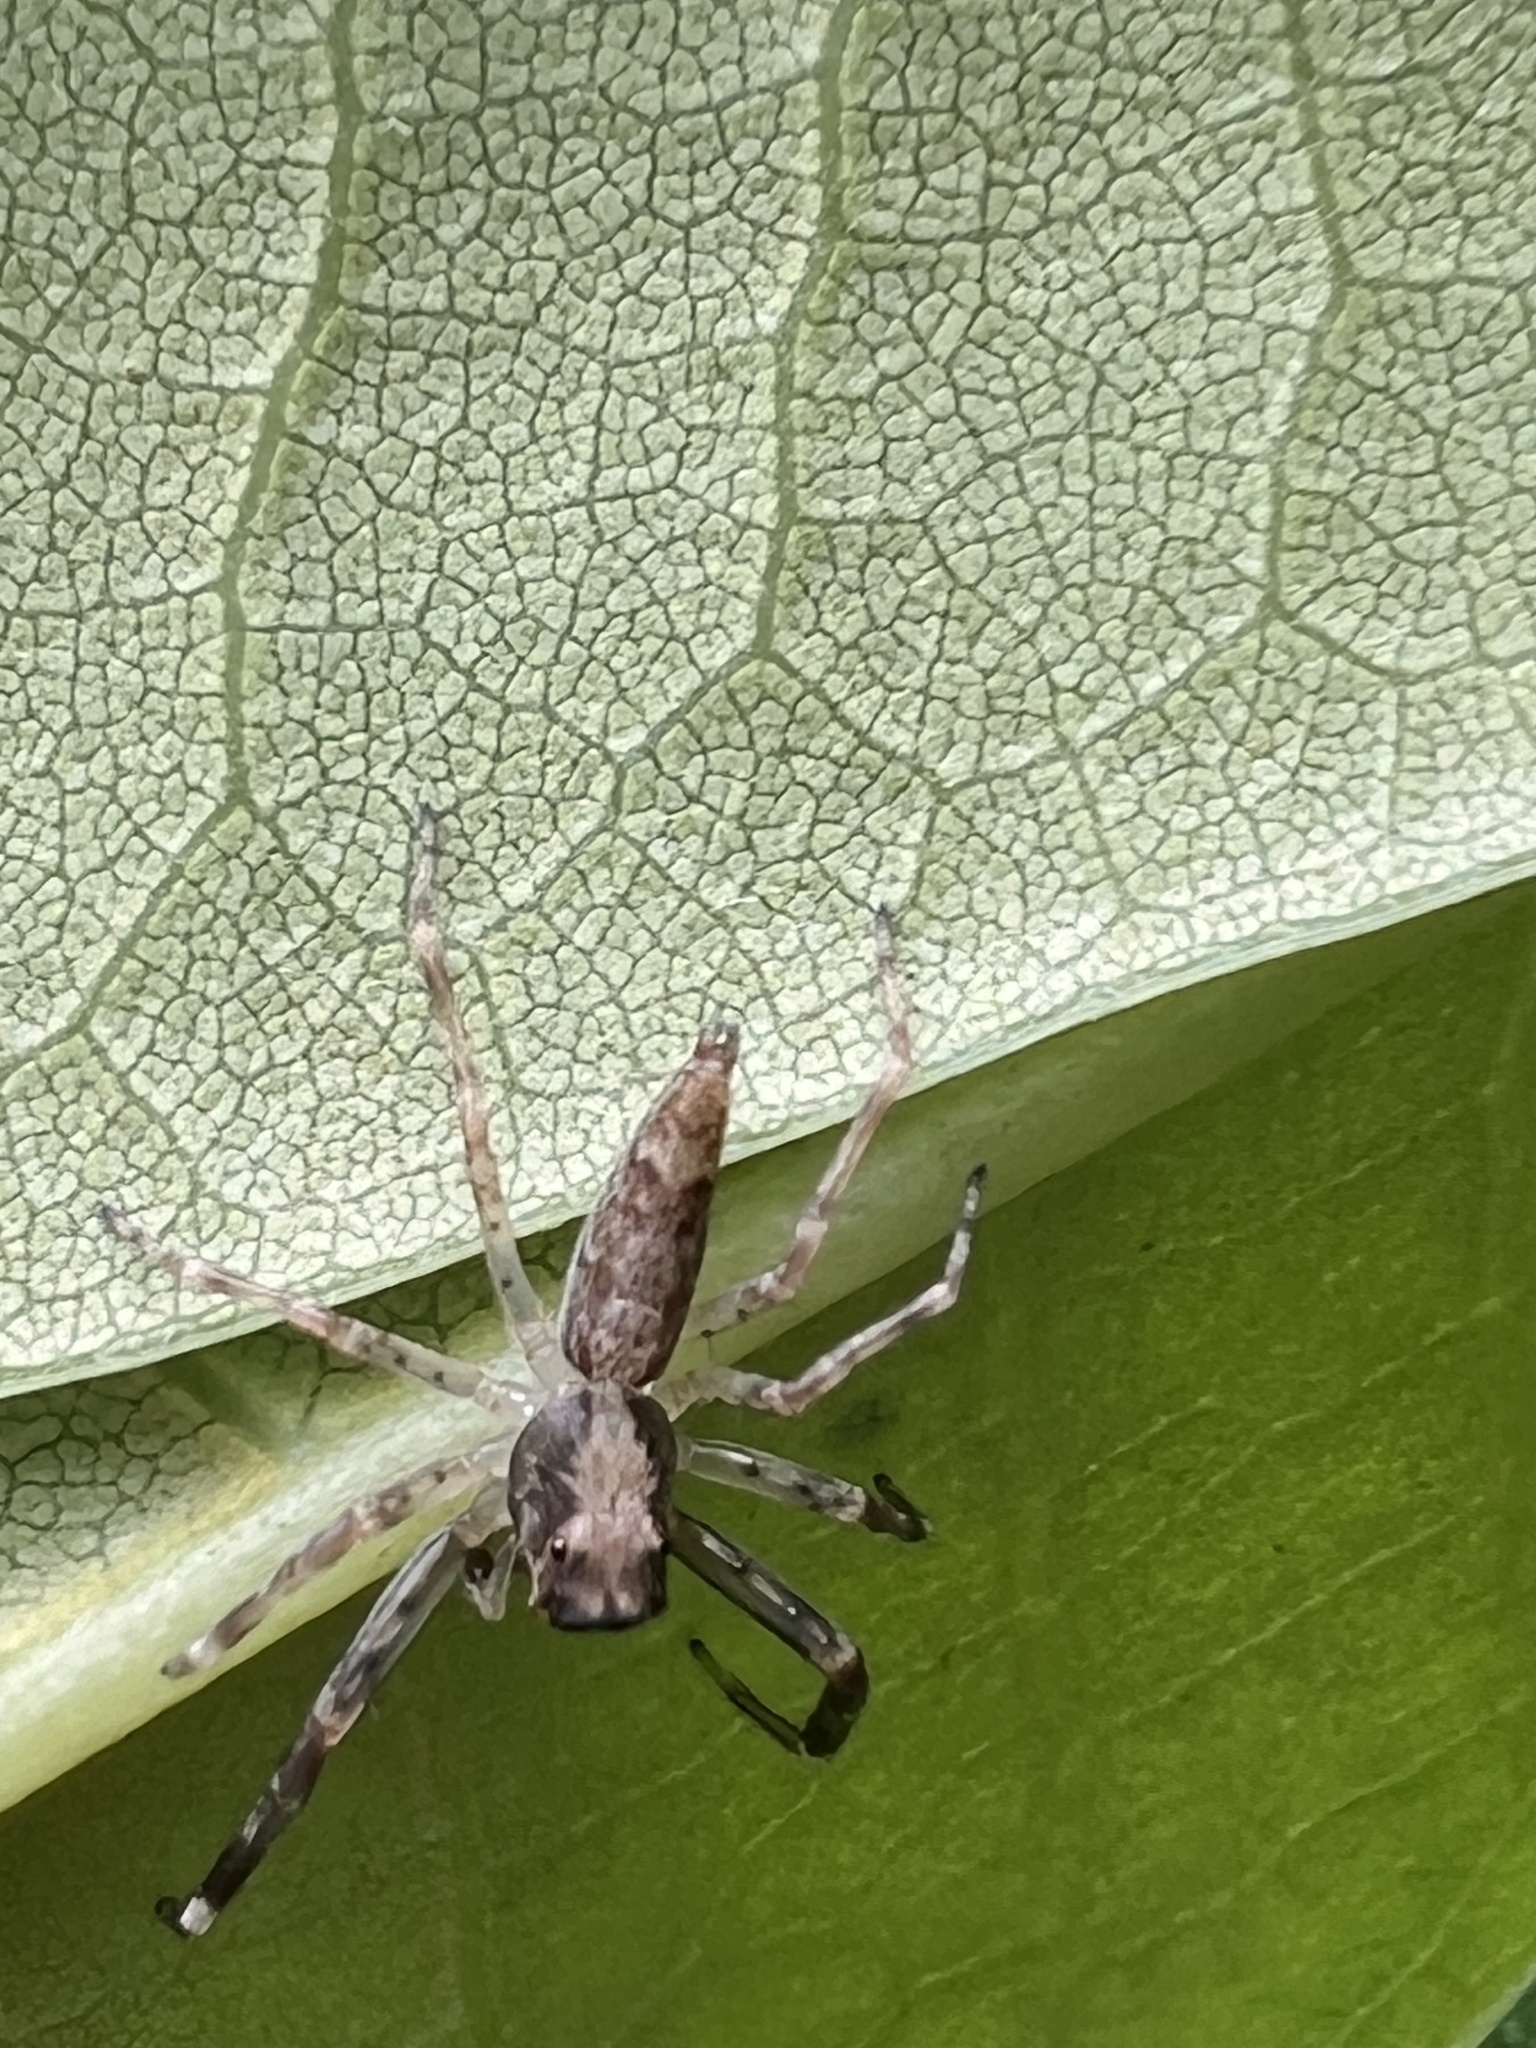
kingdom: Animalia
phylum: Arthropoda
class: Arachnida
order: Araneae
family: Salticidae
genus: Helpis
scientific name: Helpis minitabunda
